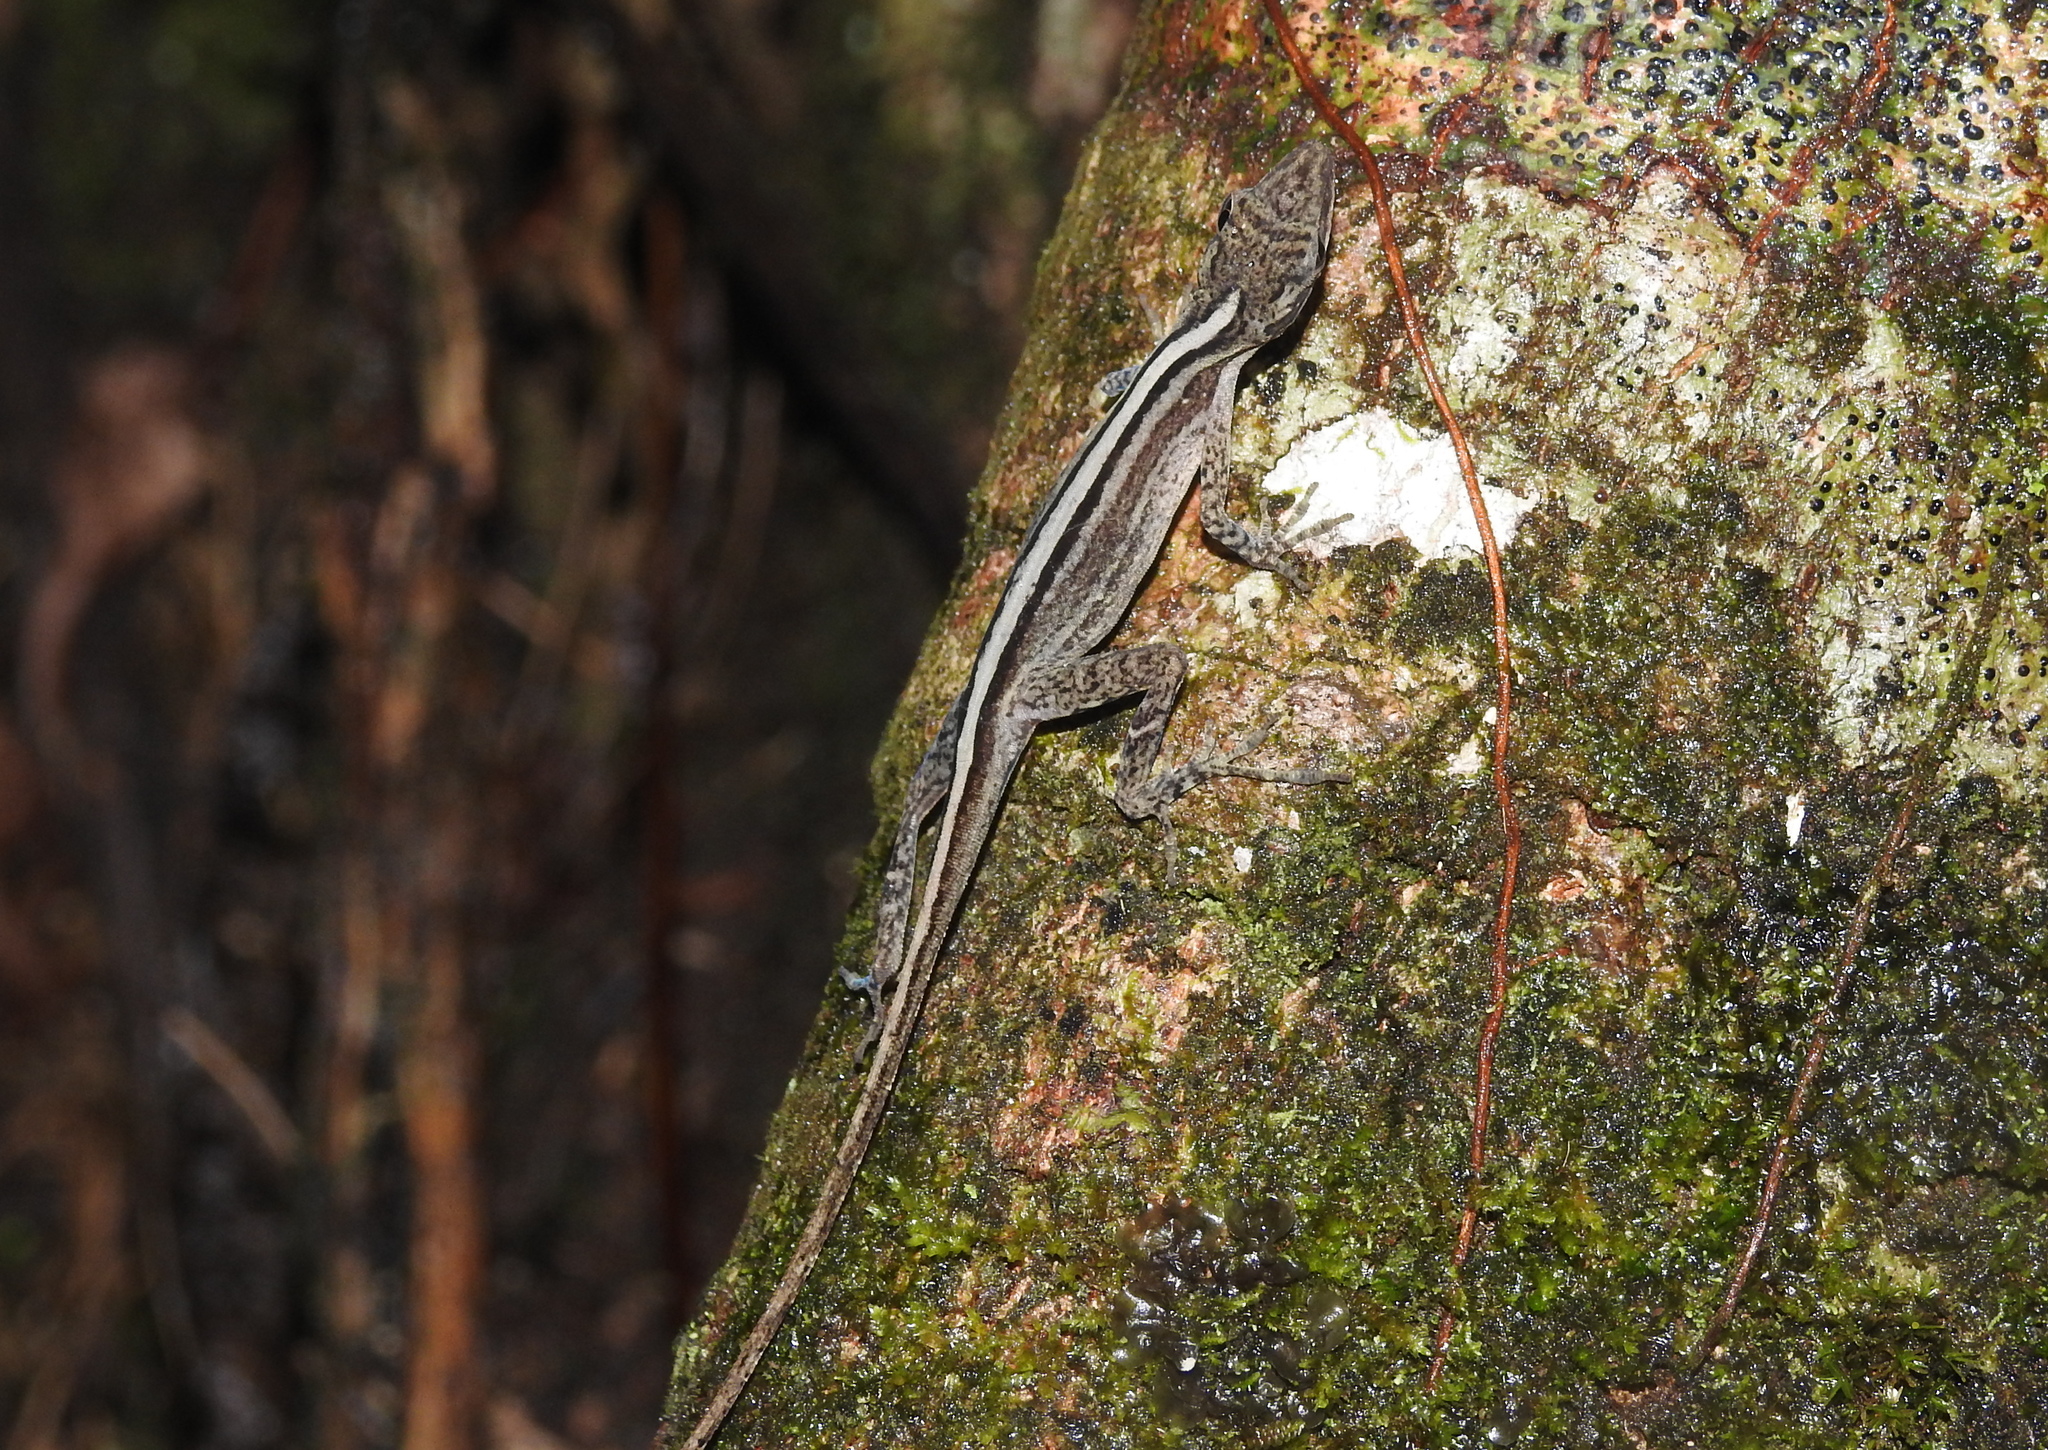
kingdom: Animalia
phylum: Chordata
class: Squamata
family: Dactyloidae
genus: Anolis
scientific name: Anolis lemurinus
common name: Ghost anole
